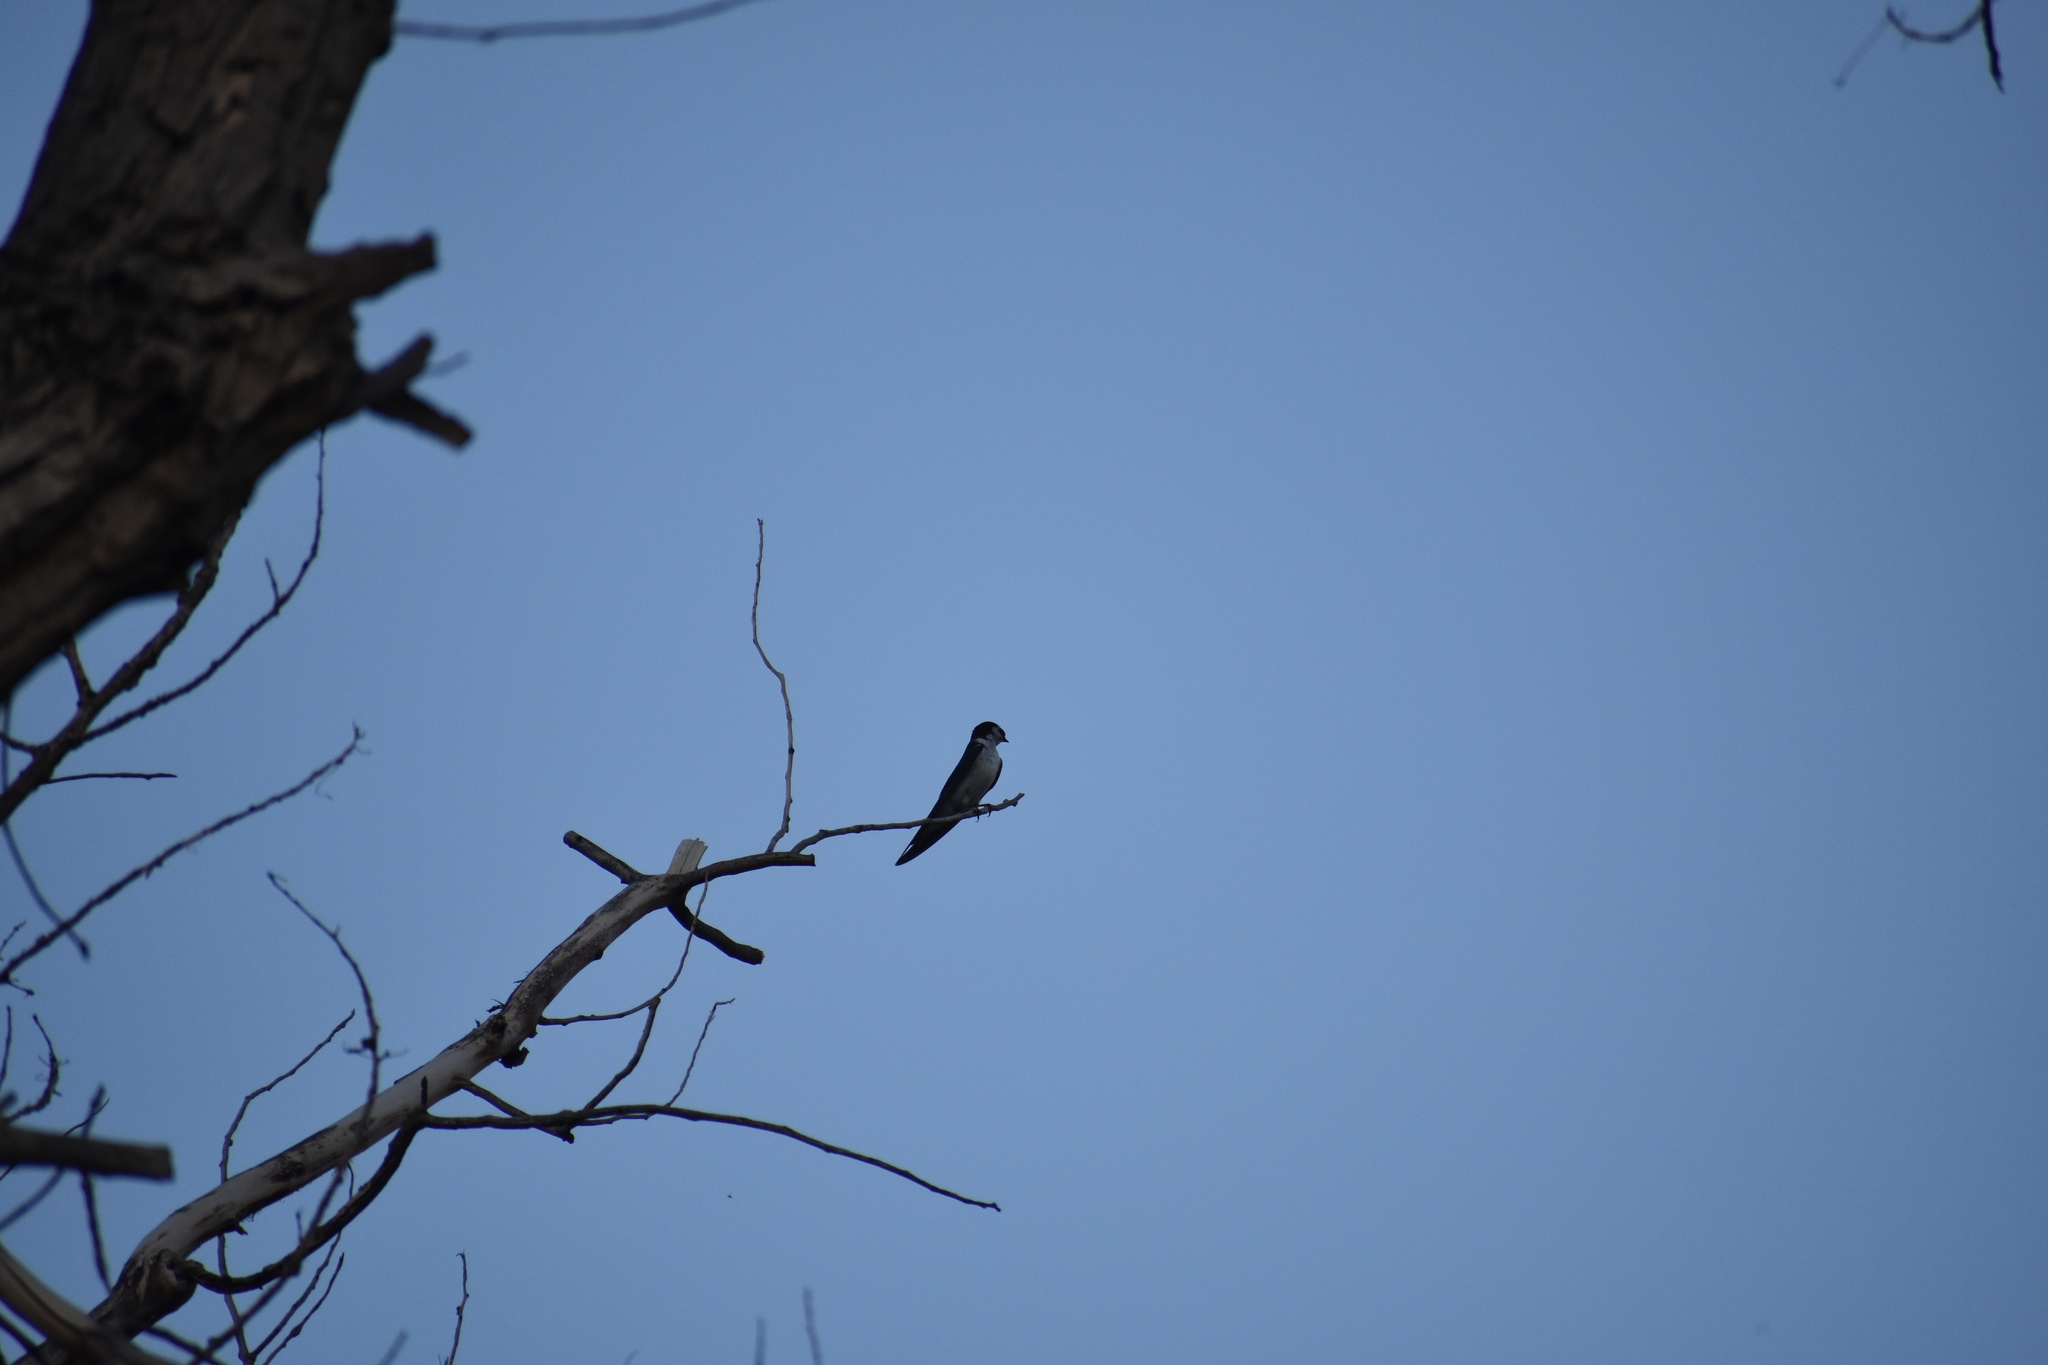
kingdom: Animalia
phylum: Chordata
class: Aves
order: Passeriformes
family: Hirundinidae
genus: Tachycineta
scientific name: Tachycineta thalassina
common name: Violet-green swallow
